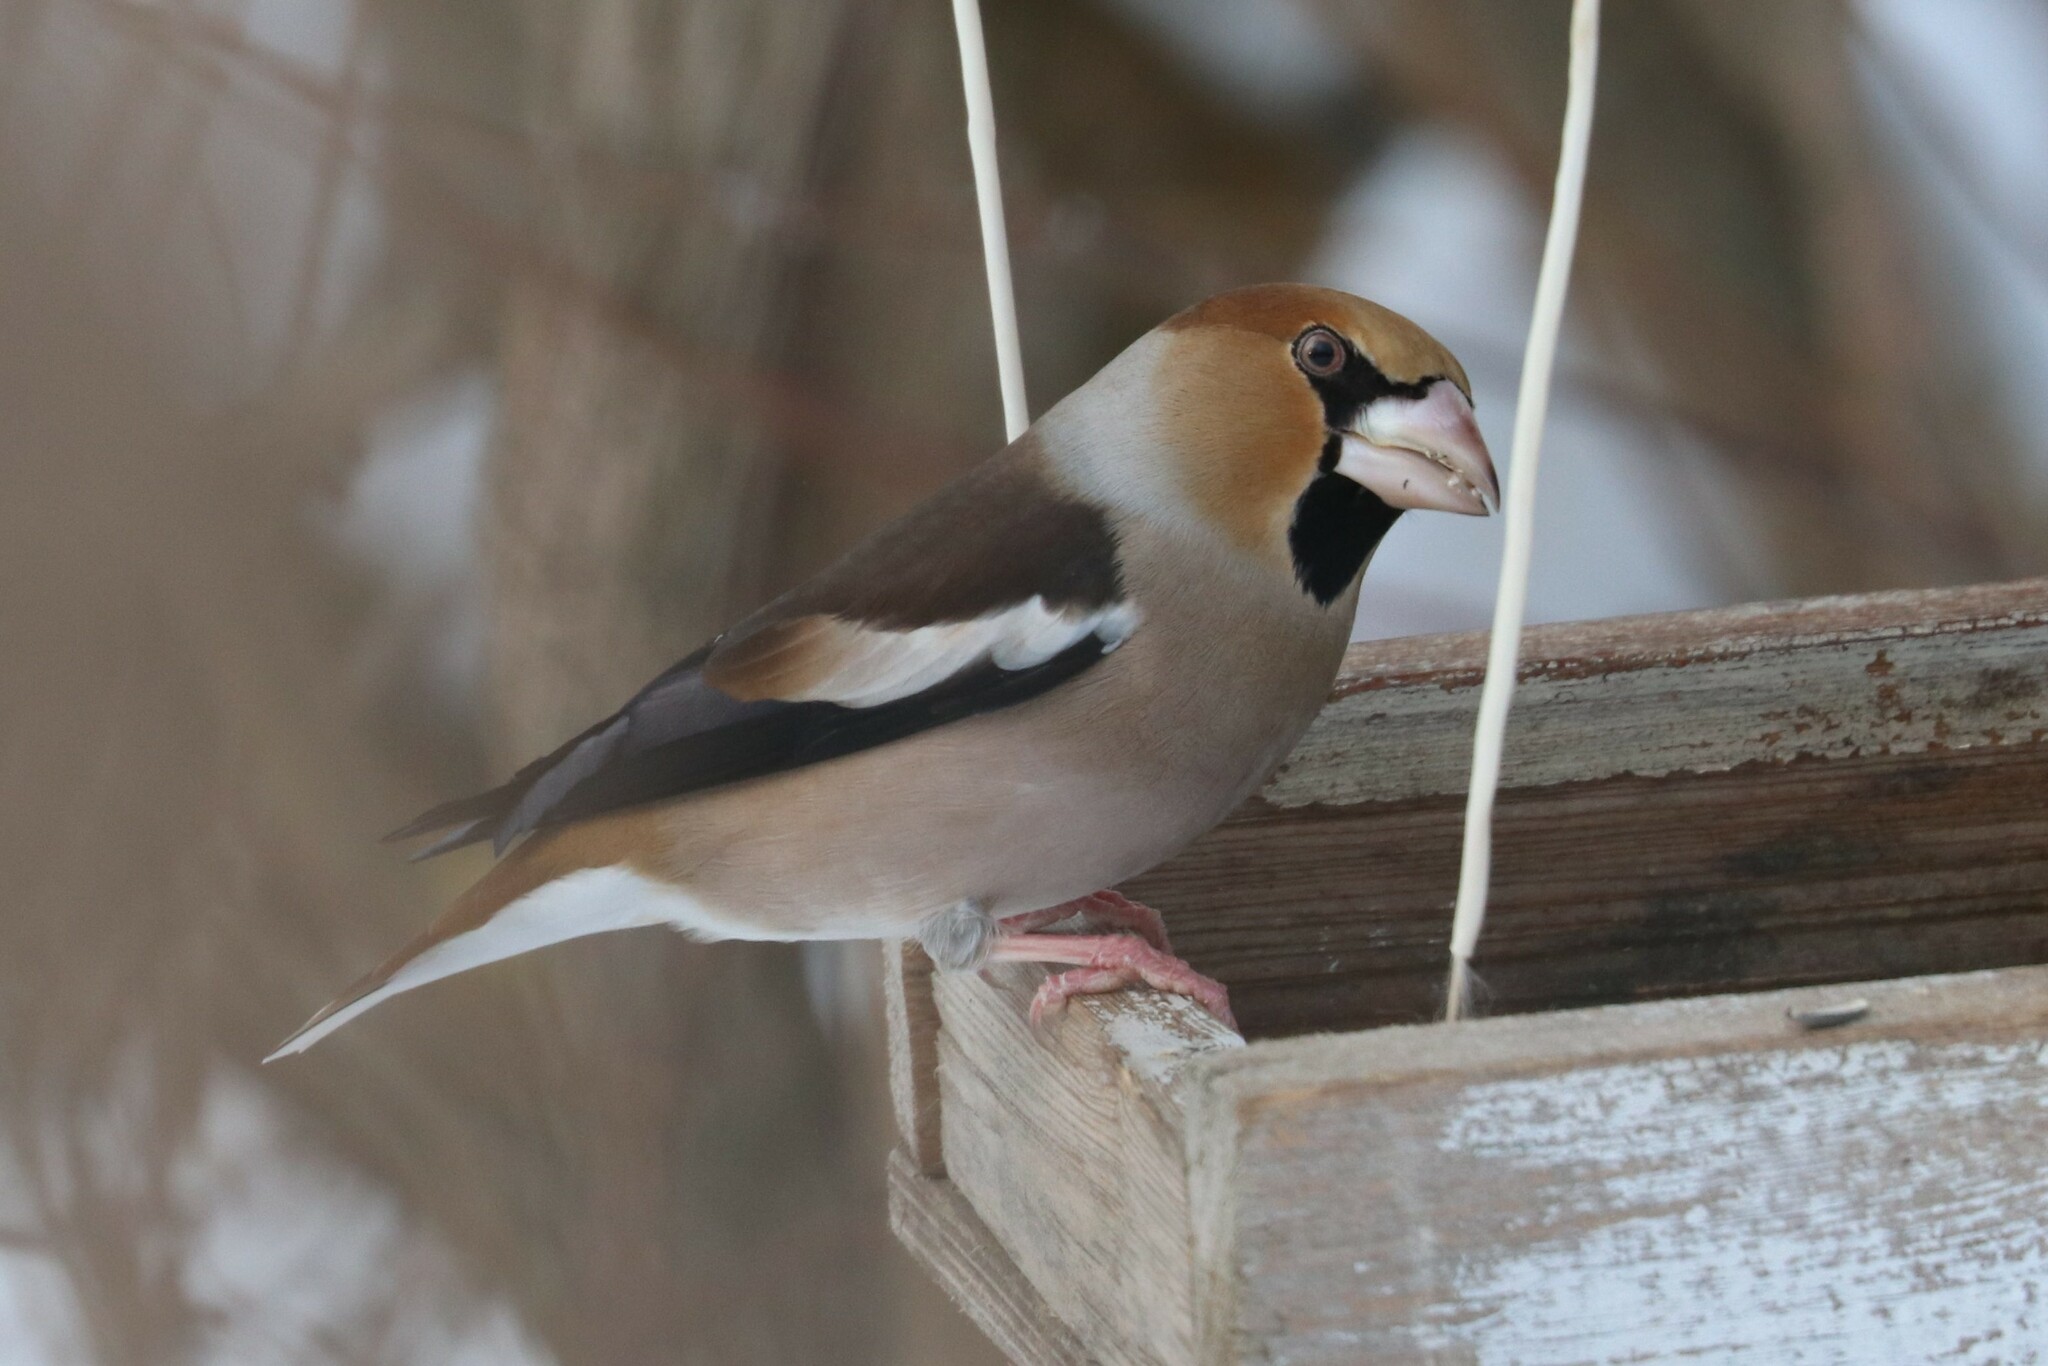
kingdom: Animalia
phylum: Chordata
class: Aves
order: Passeriformes
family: Fringillidae
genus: Coccothraustes
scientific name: Coccothraustes coccothraustes
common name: Hawfinch
